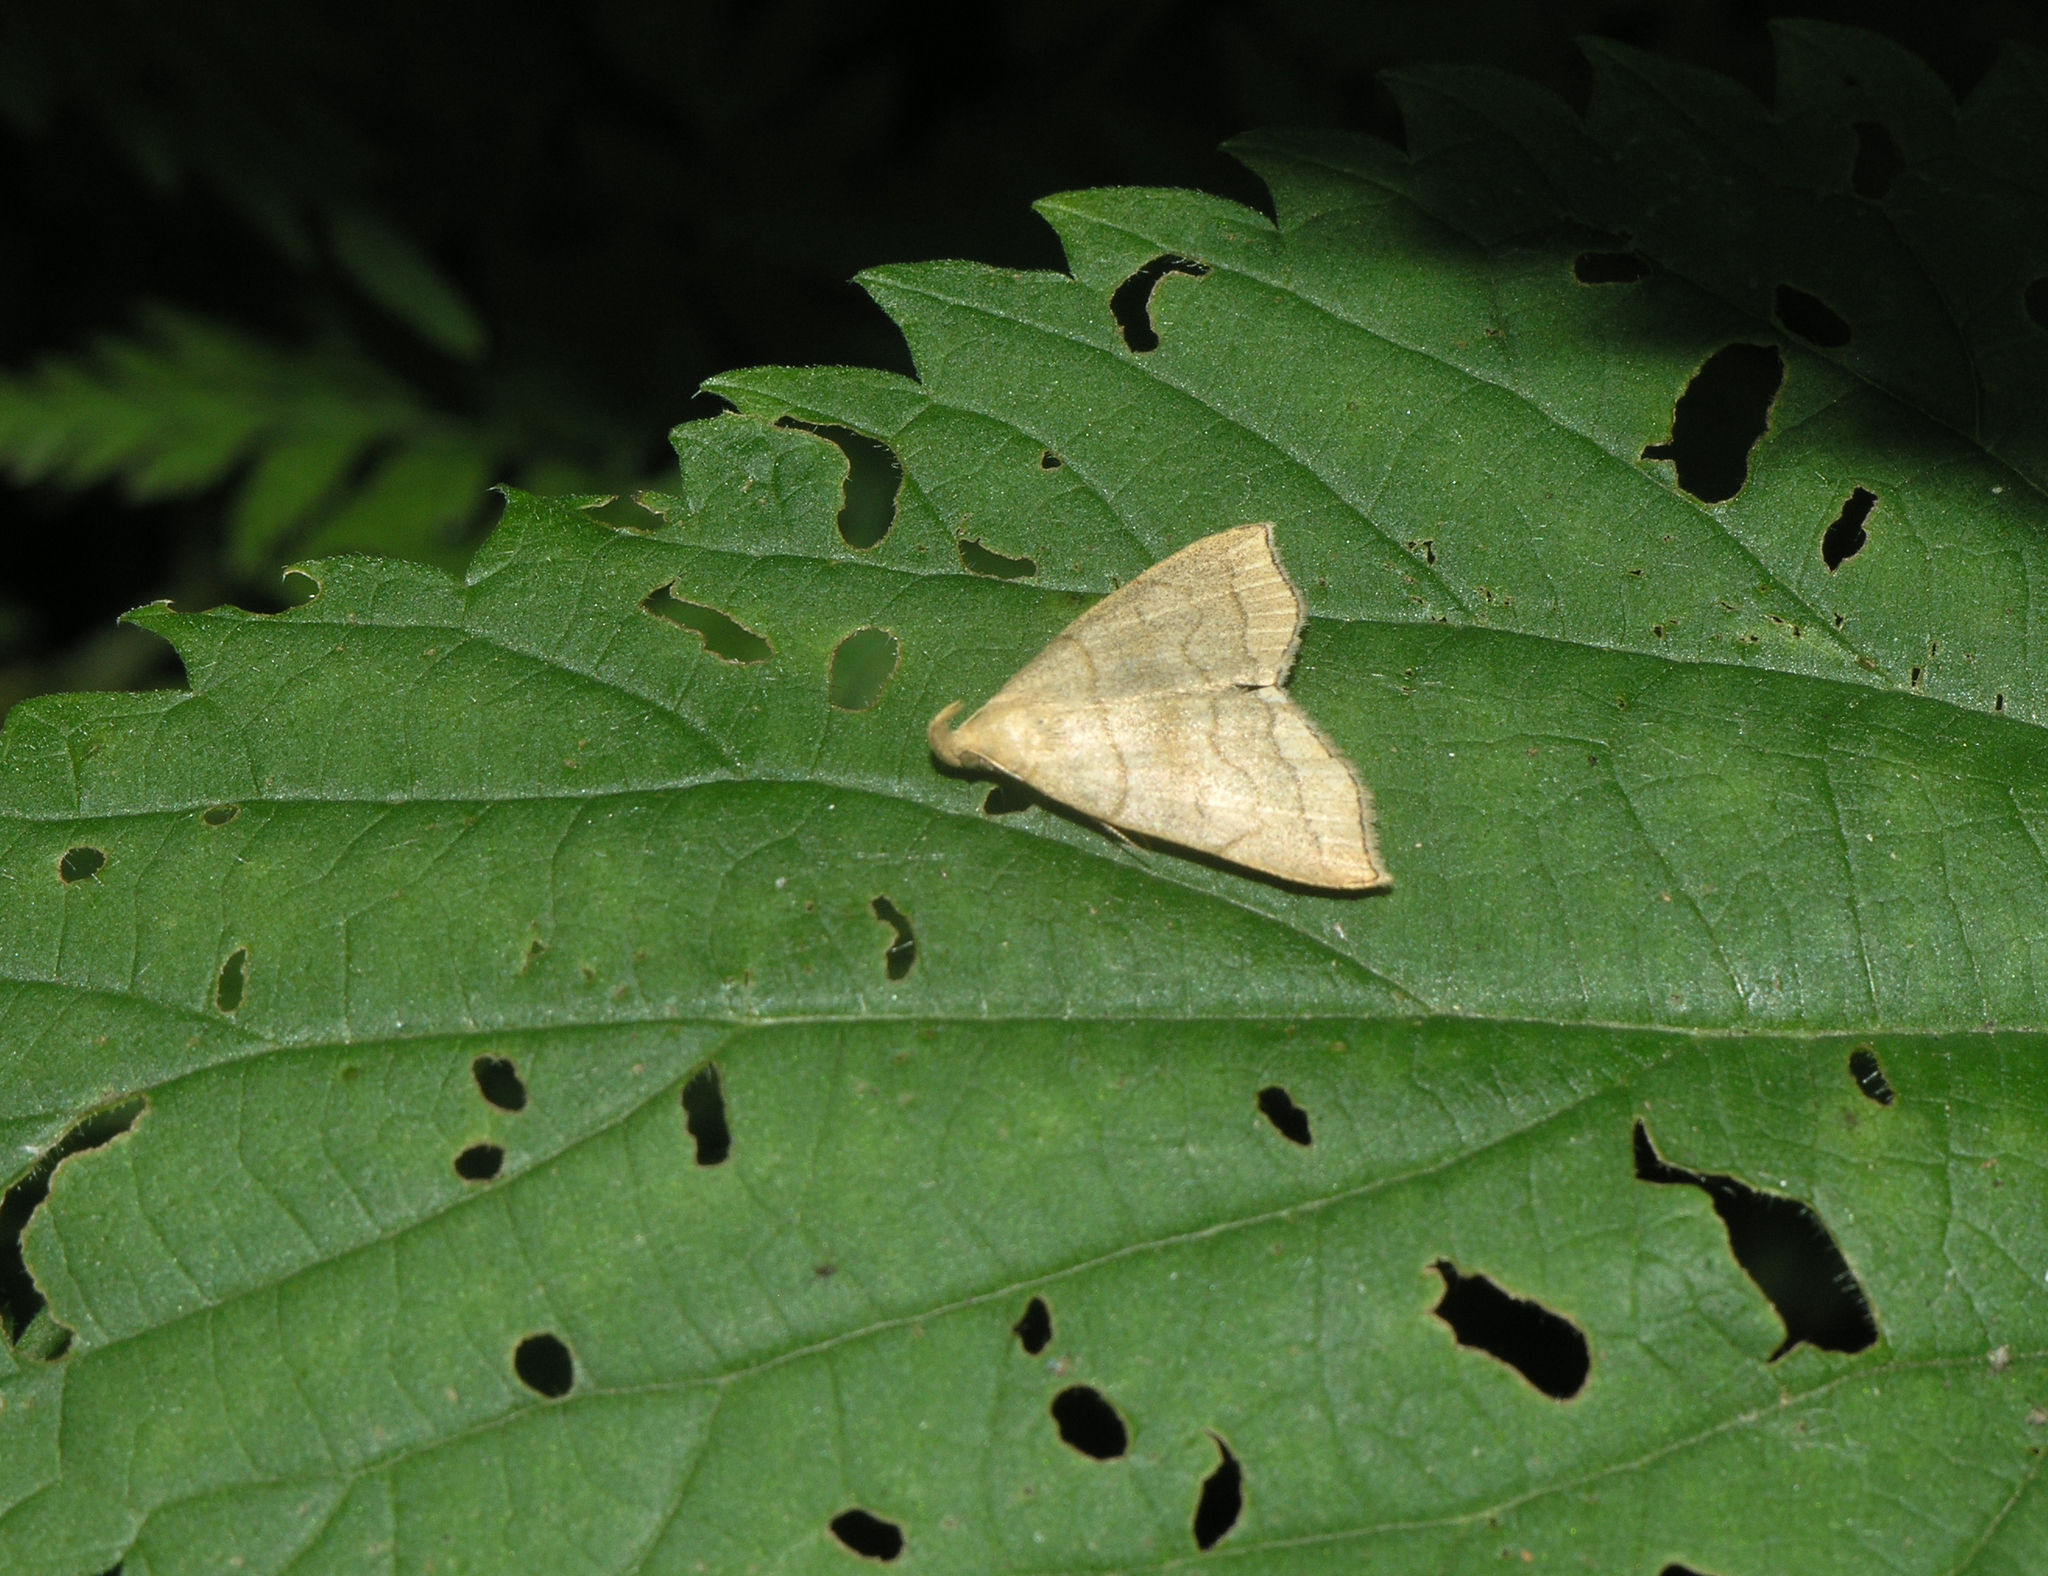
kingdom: Animalia
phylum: Arthropoda
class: Insecta
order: Lepidoptera
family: Erebidae
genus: Herminia
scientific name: Herminia tarsicrinalis
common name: Shaded fan-foot
